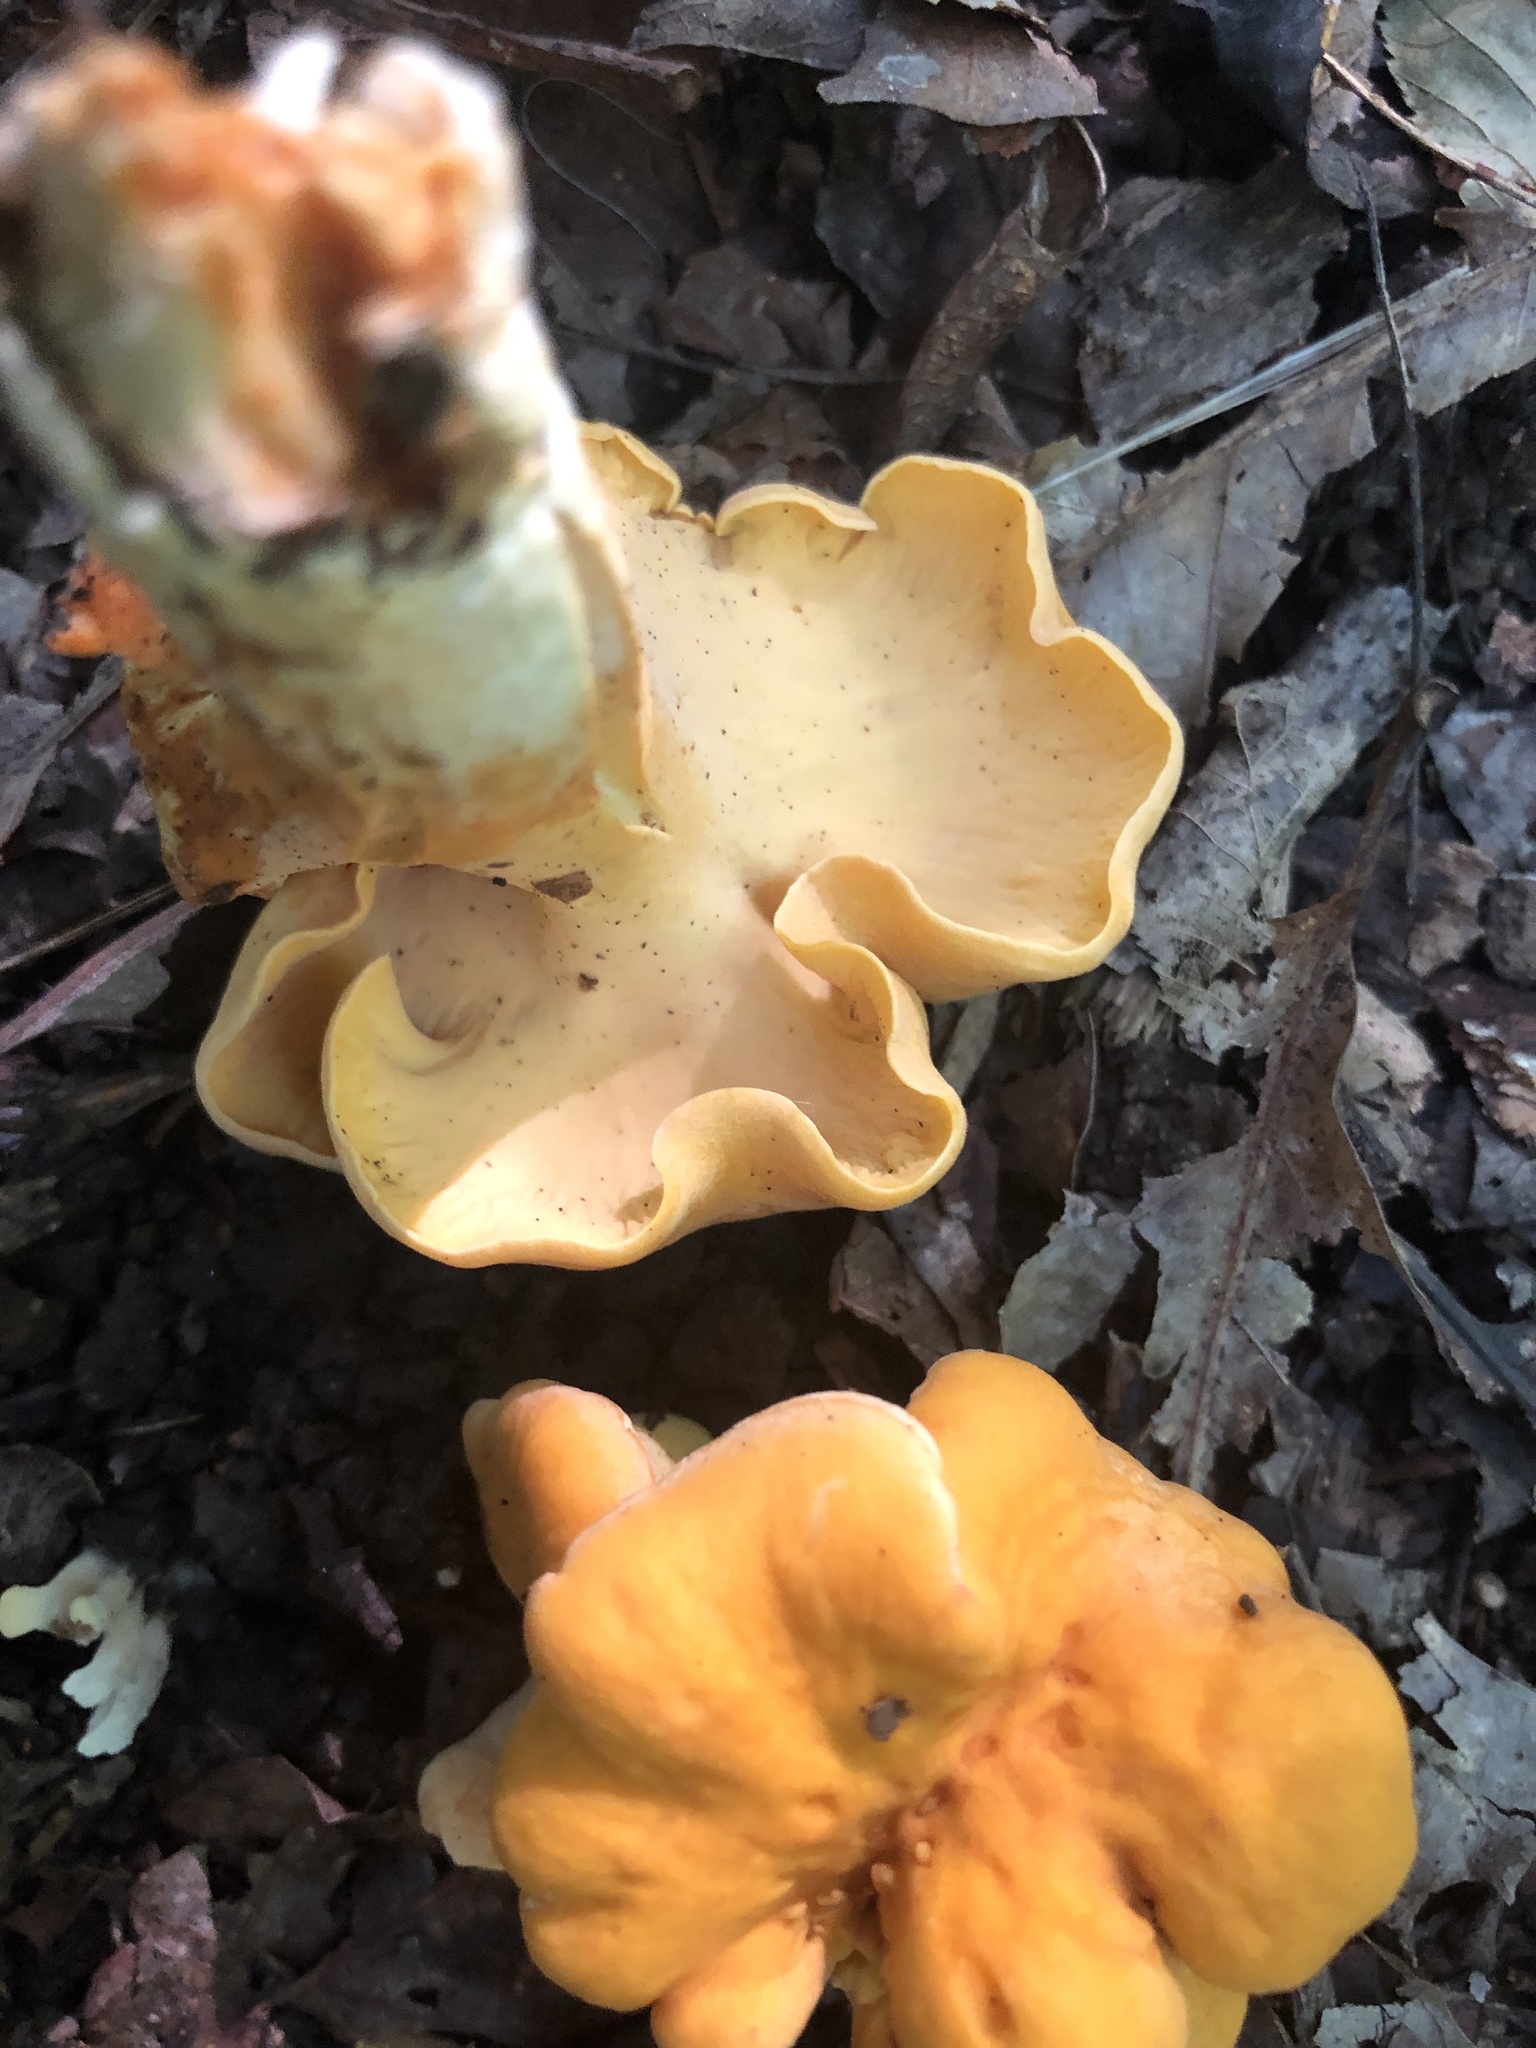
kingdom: Fungi
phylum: Basidiomycota
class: Agaricomycetes
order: Cantharellales
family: Hydnaceae
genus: Cantharellus
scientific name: Cantharellus lateritius
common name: Smooth chanterelle
